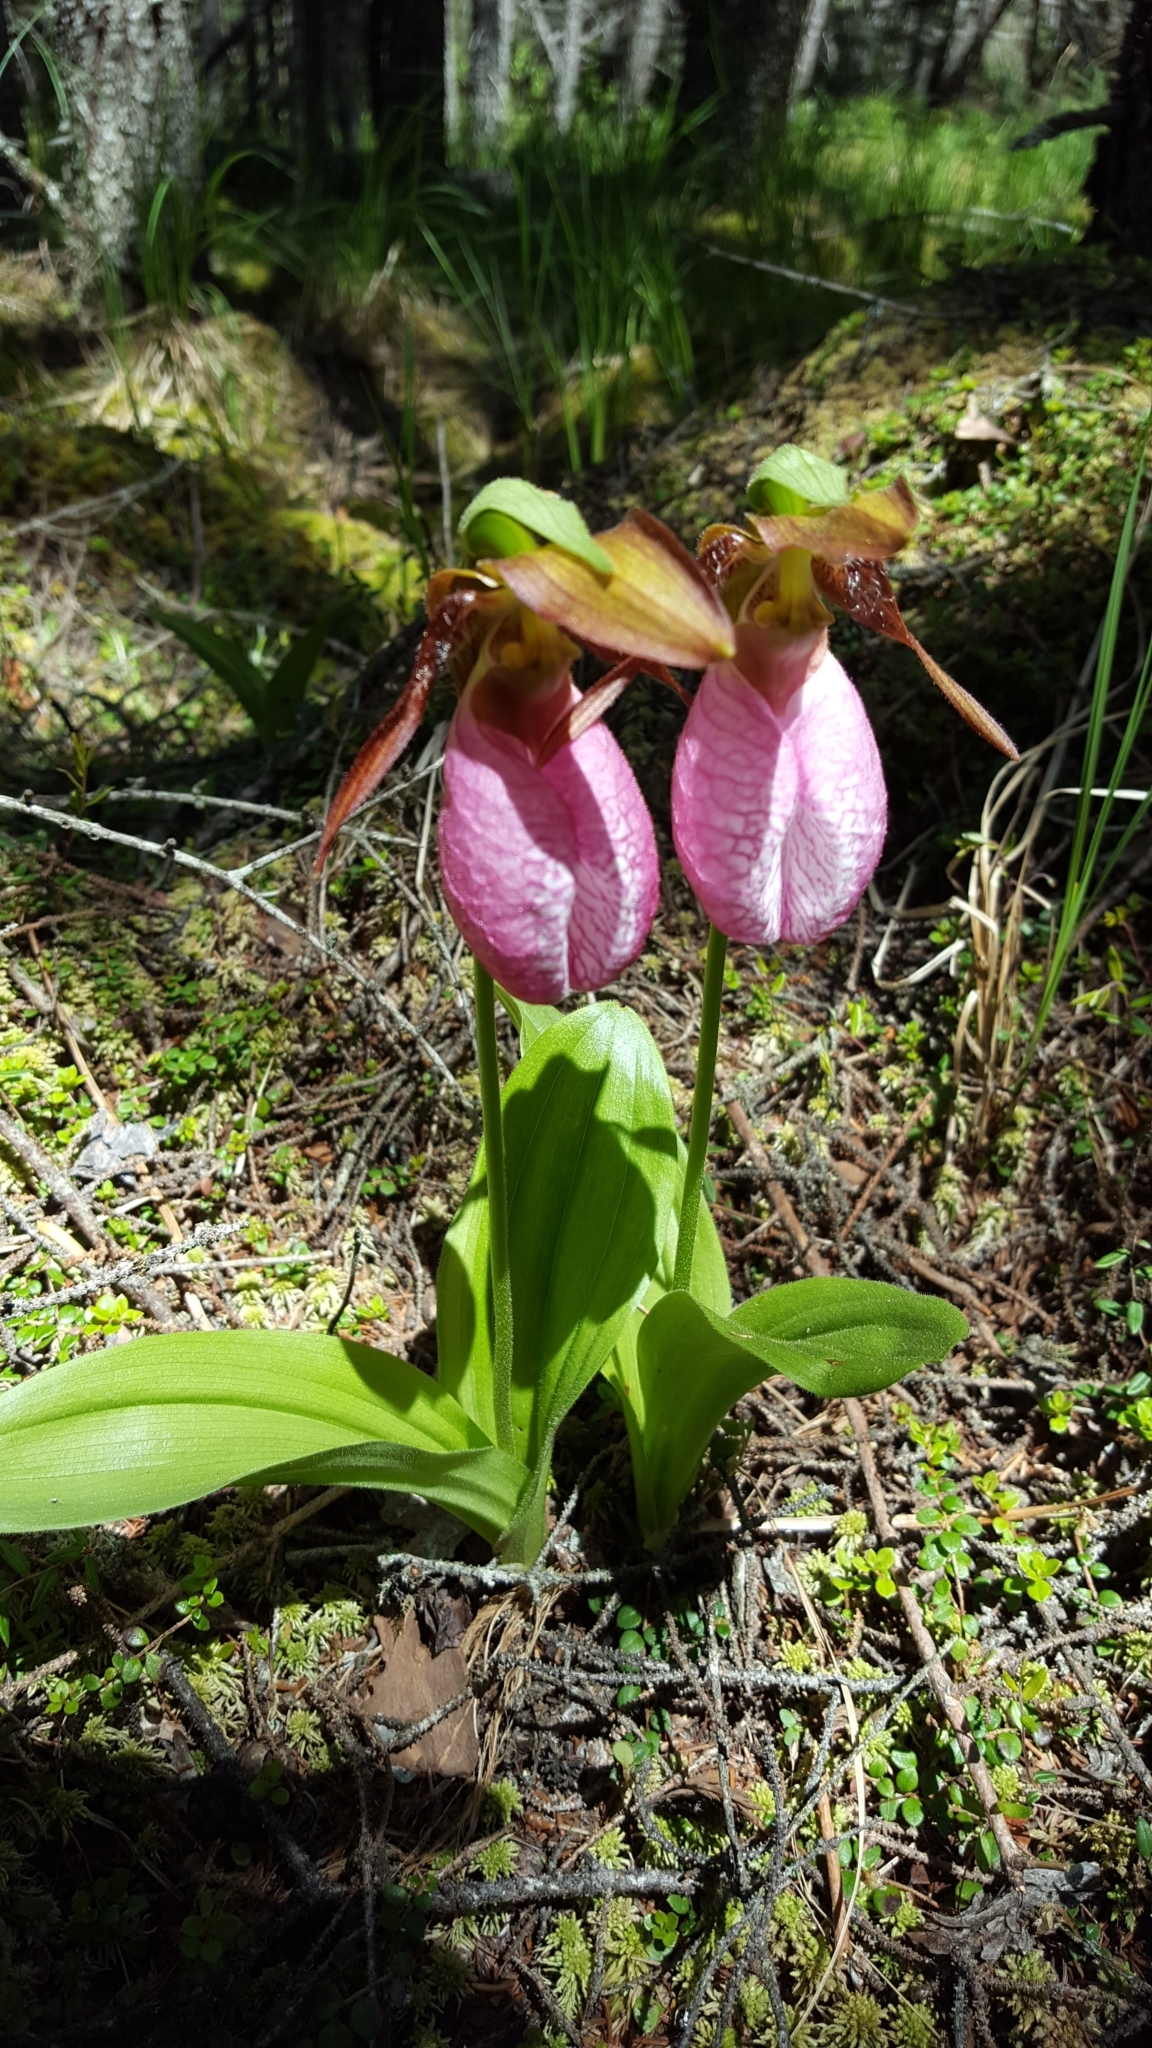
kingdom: Plantae
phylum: Tracheophyta
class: Liliopsida
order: Asparagales
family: Orchidaceae
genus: Cypripedium
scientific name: Cypripedium acaule
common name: Pink lady's-slipper
